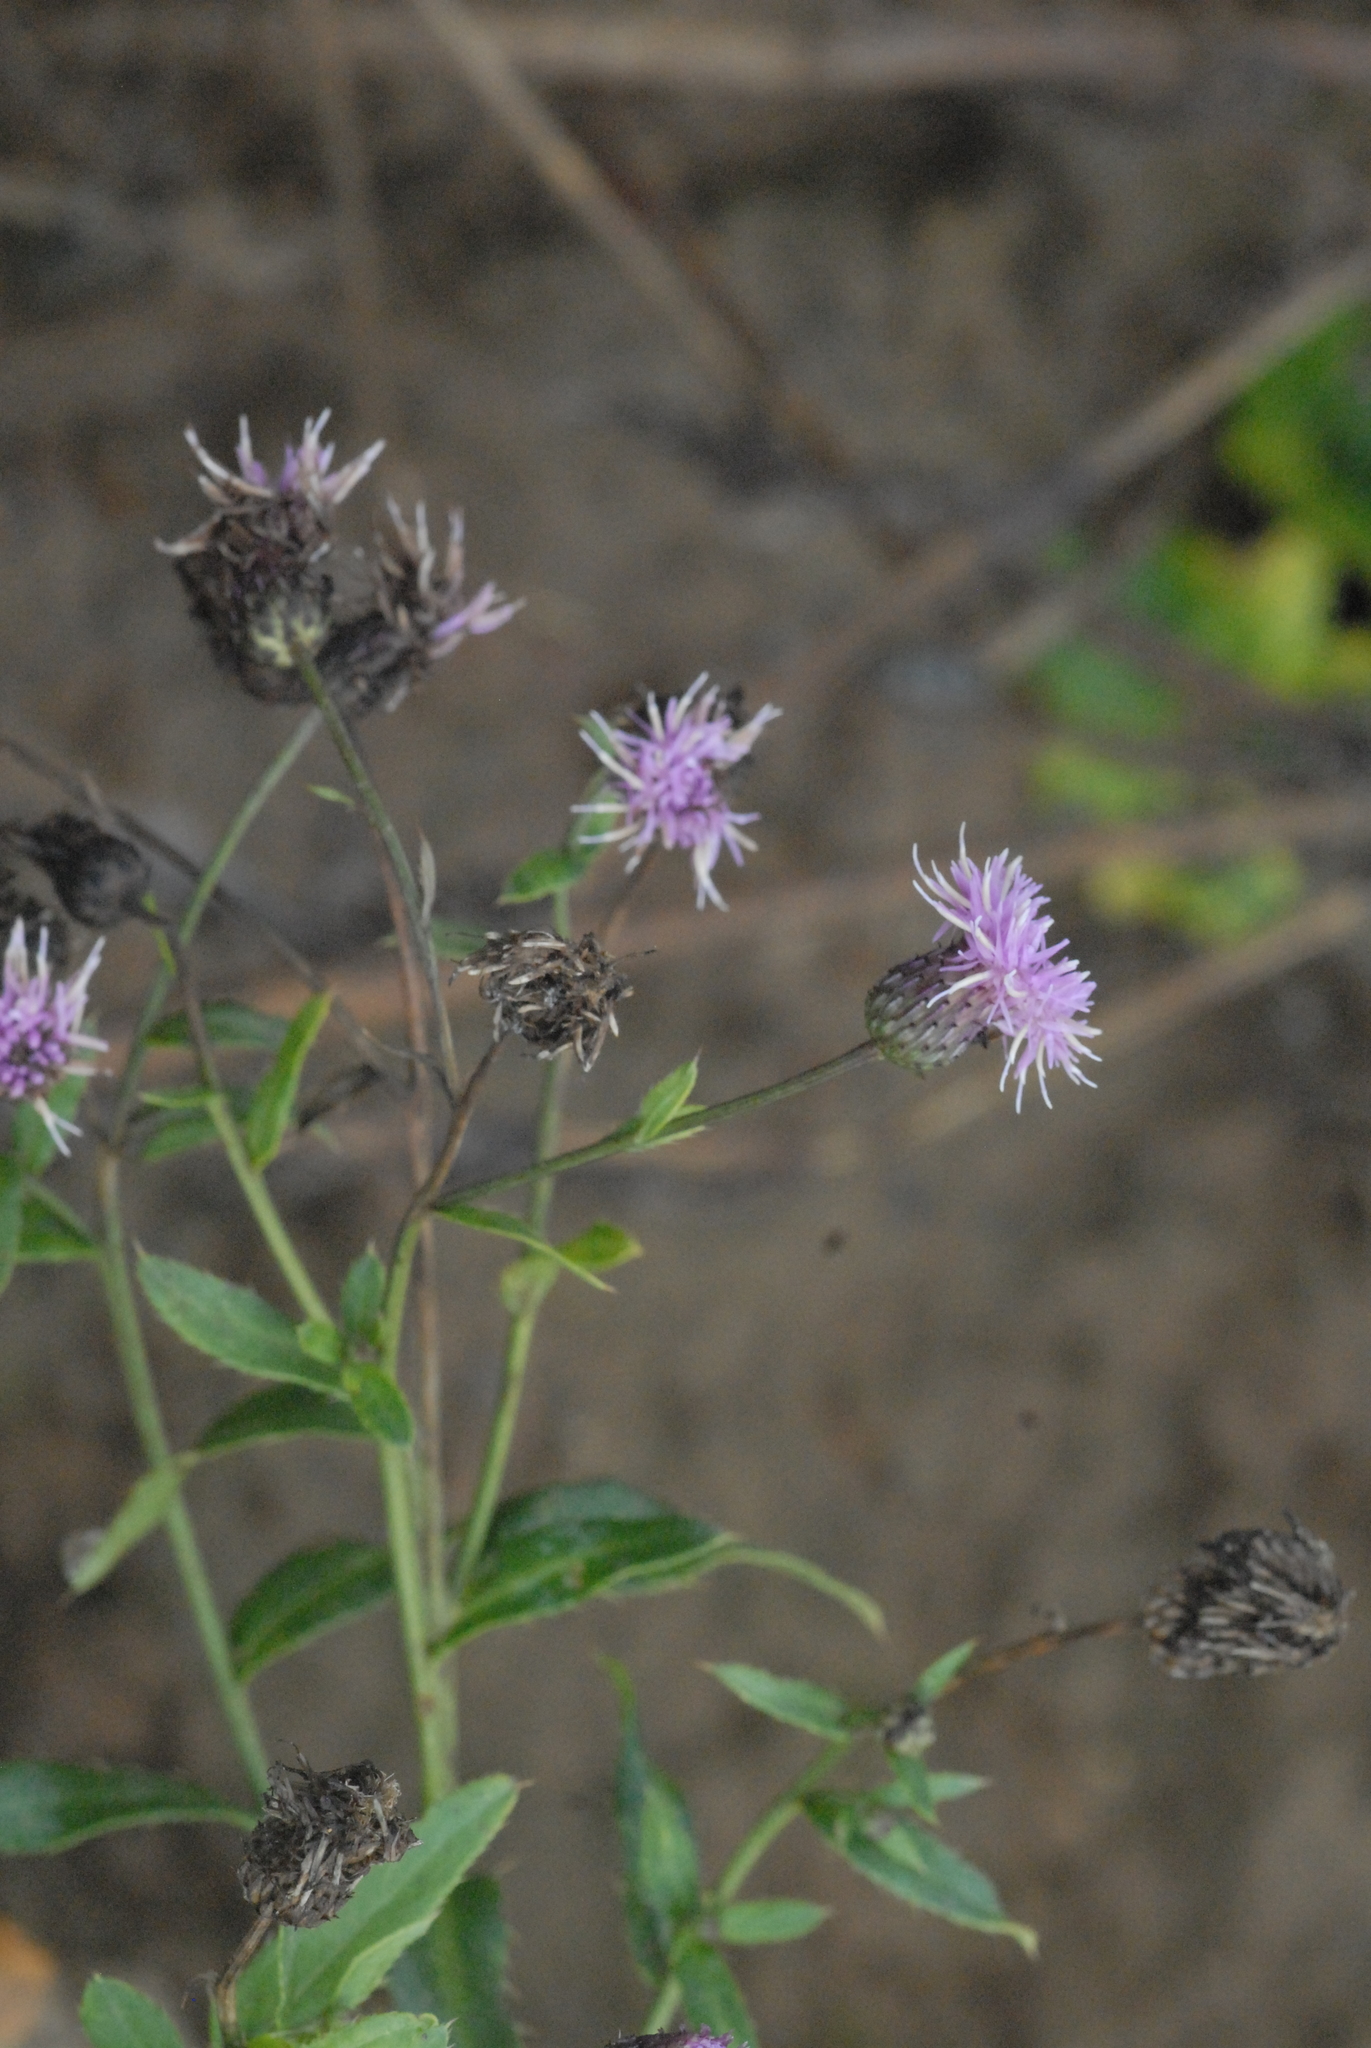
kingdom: Plantae
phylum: Tracheophyta
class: Magnoliopsida
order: Asterales
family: Asteraceae
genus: Cirsium
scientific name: Cirsium arvense
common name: Creeping thistle
